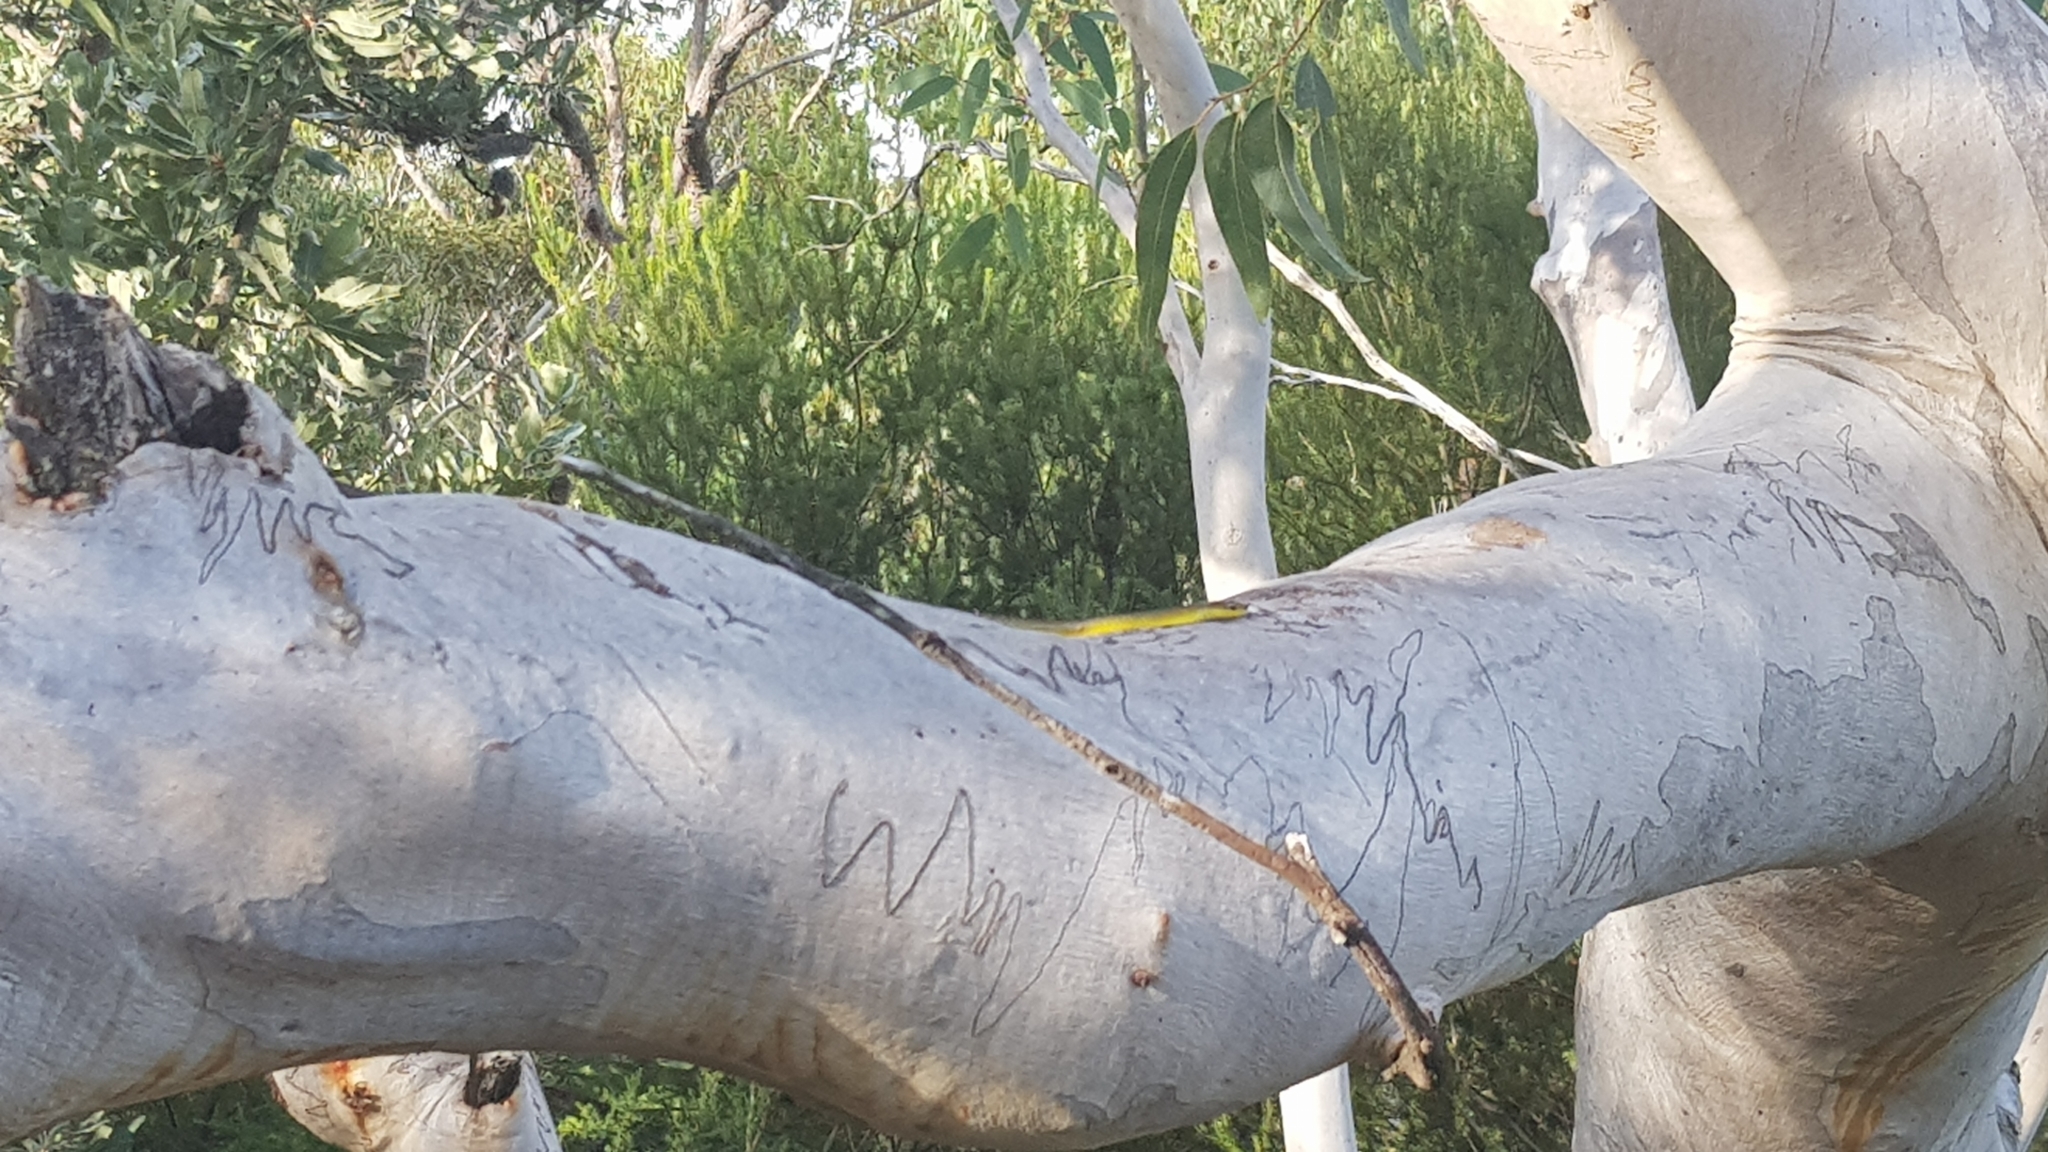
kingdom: Animalia
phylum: Chordata
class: Squamata
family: Colubridae
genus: Dendrelaphis
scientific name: Dendrelaphis punctulatus
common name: Common tree snake
